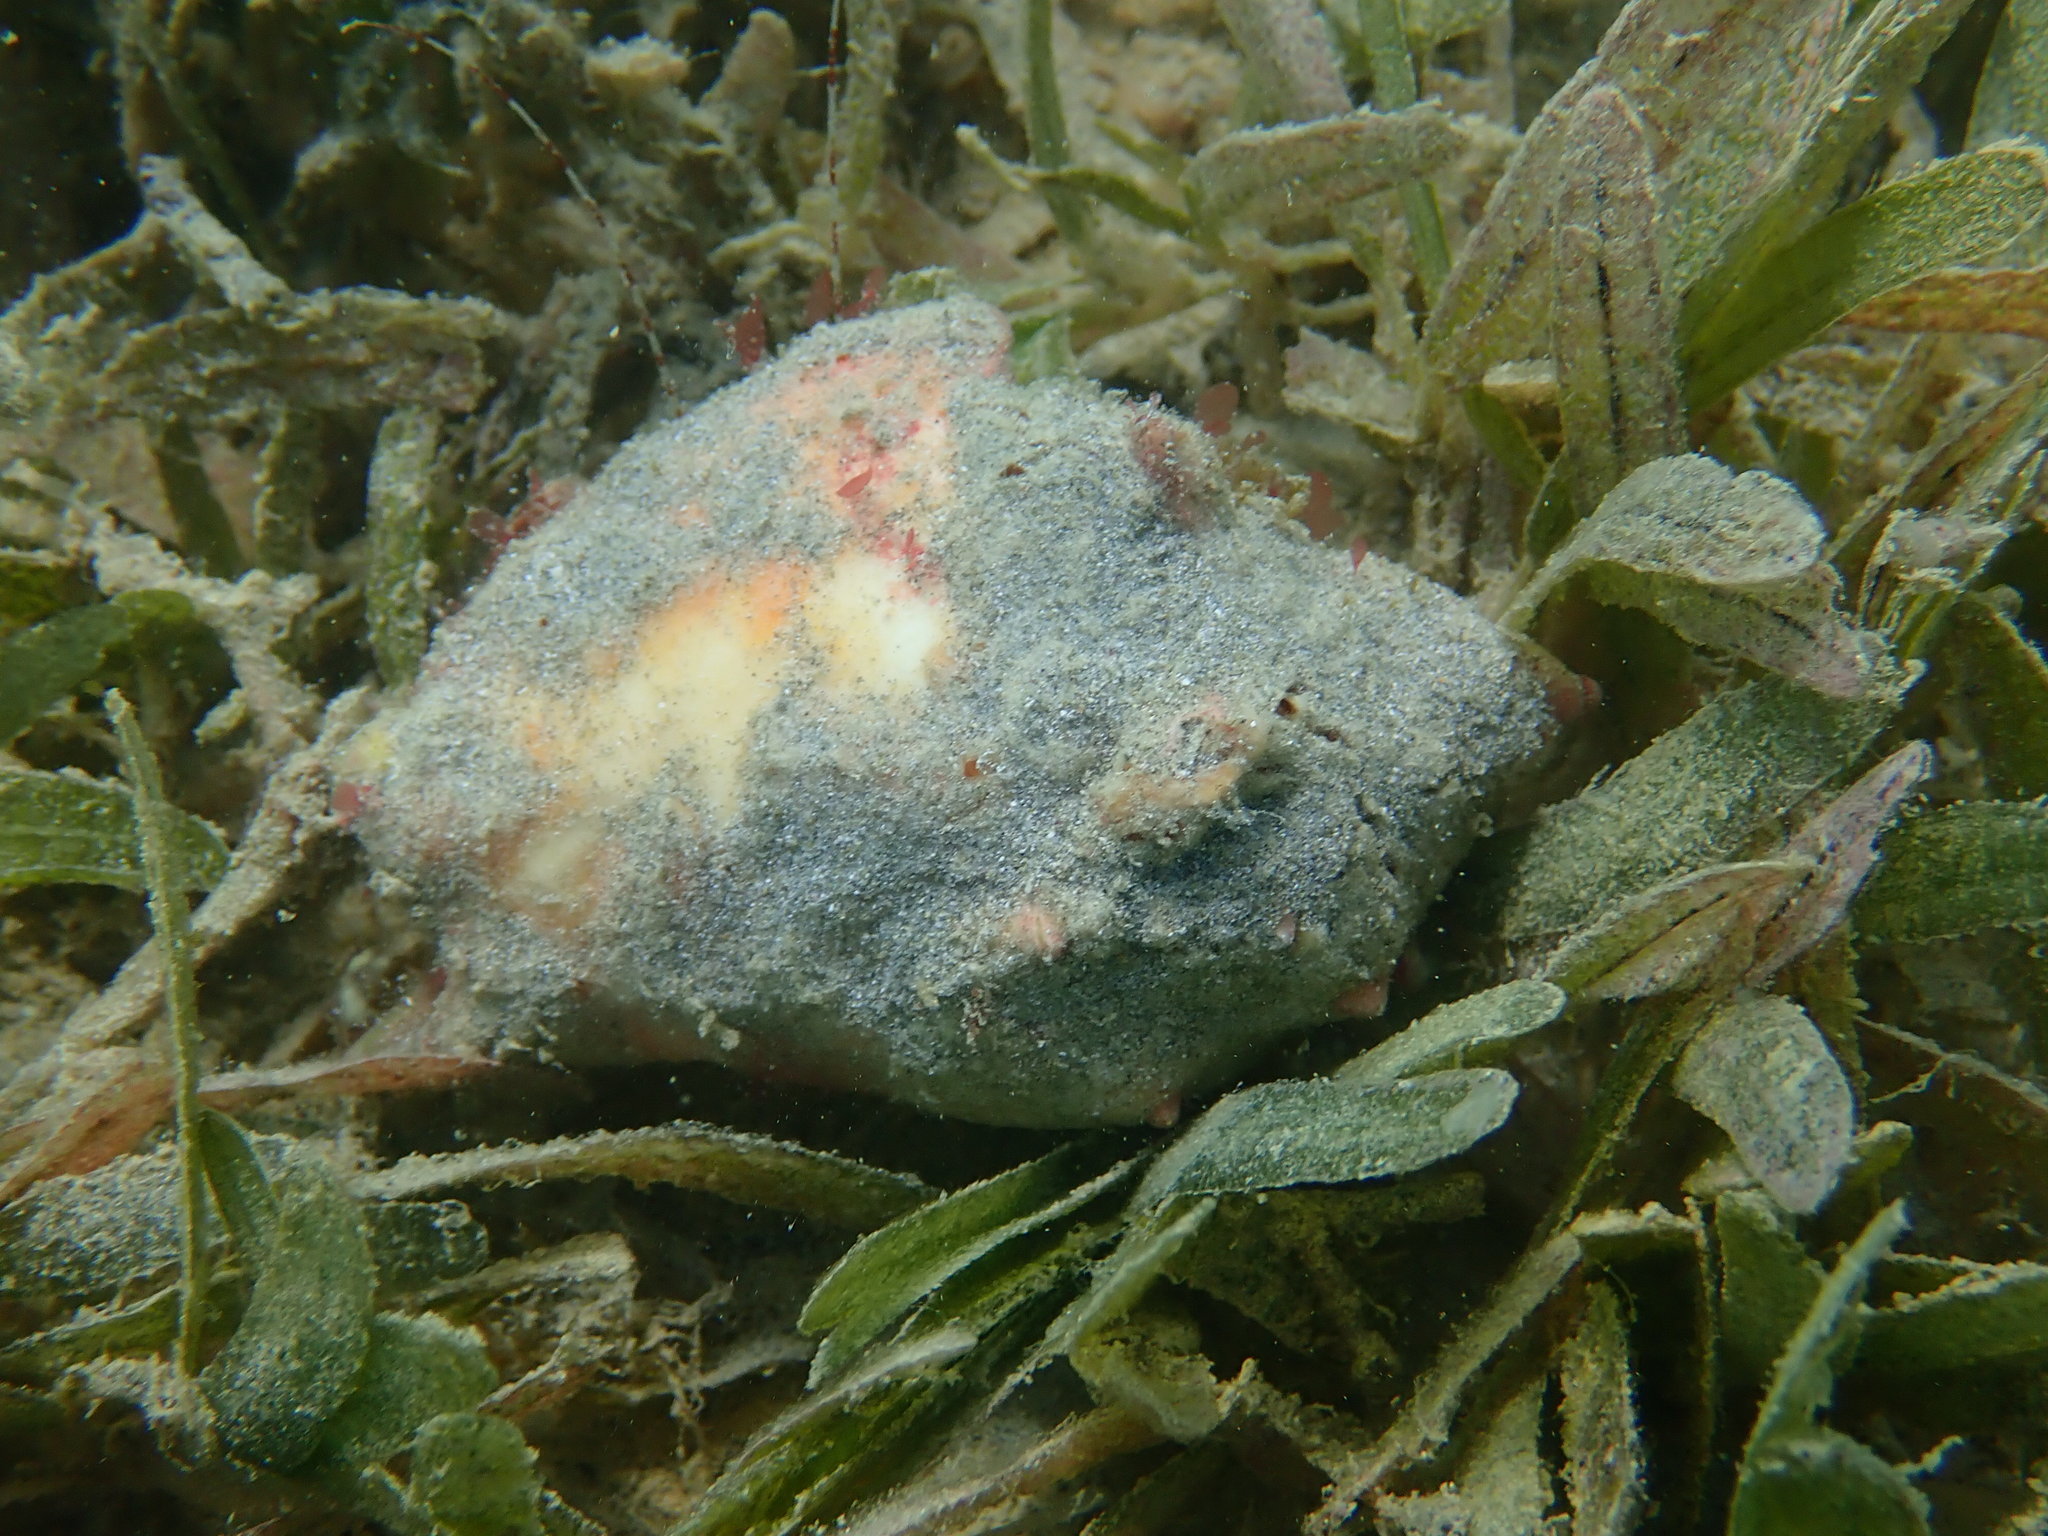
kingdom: Animalia
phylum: Mollusca
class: Gastropoda
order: Littorinimorpha
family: Strombidae
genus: Strombus
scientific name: Strombus pugilis
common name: West indian fighting conch
